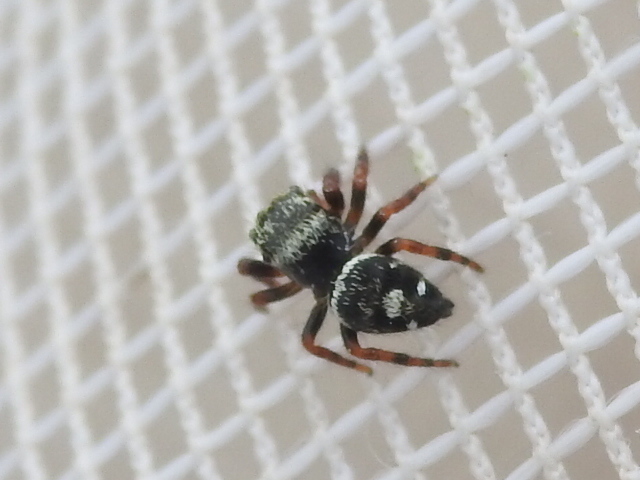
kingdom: Animalia
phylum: Arthropoda
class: Arachnida
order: Araneae
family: Salticidae
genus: Phidippus
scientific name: Phidippus audax
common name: Bold jumper
